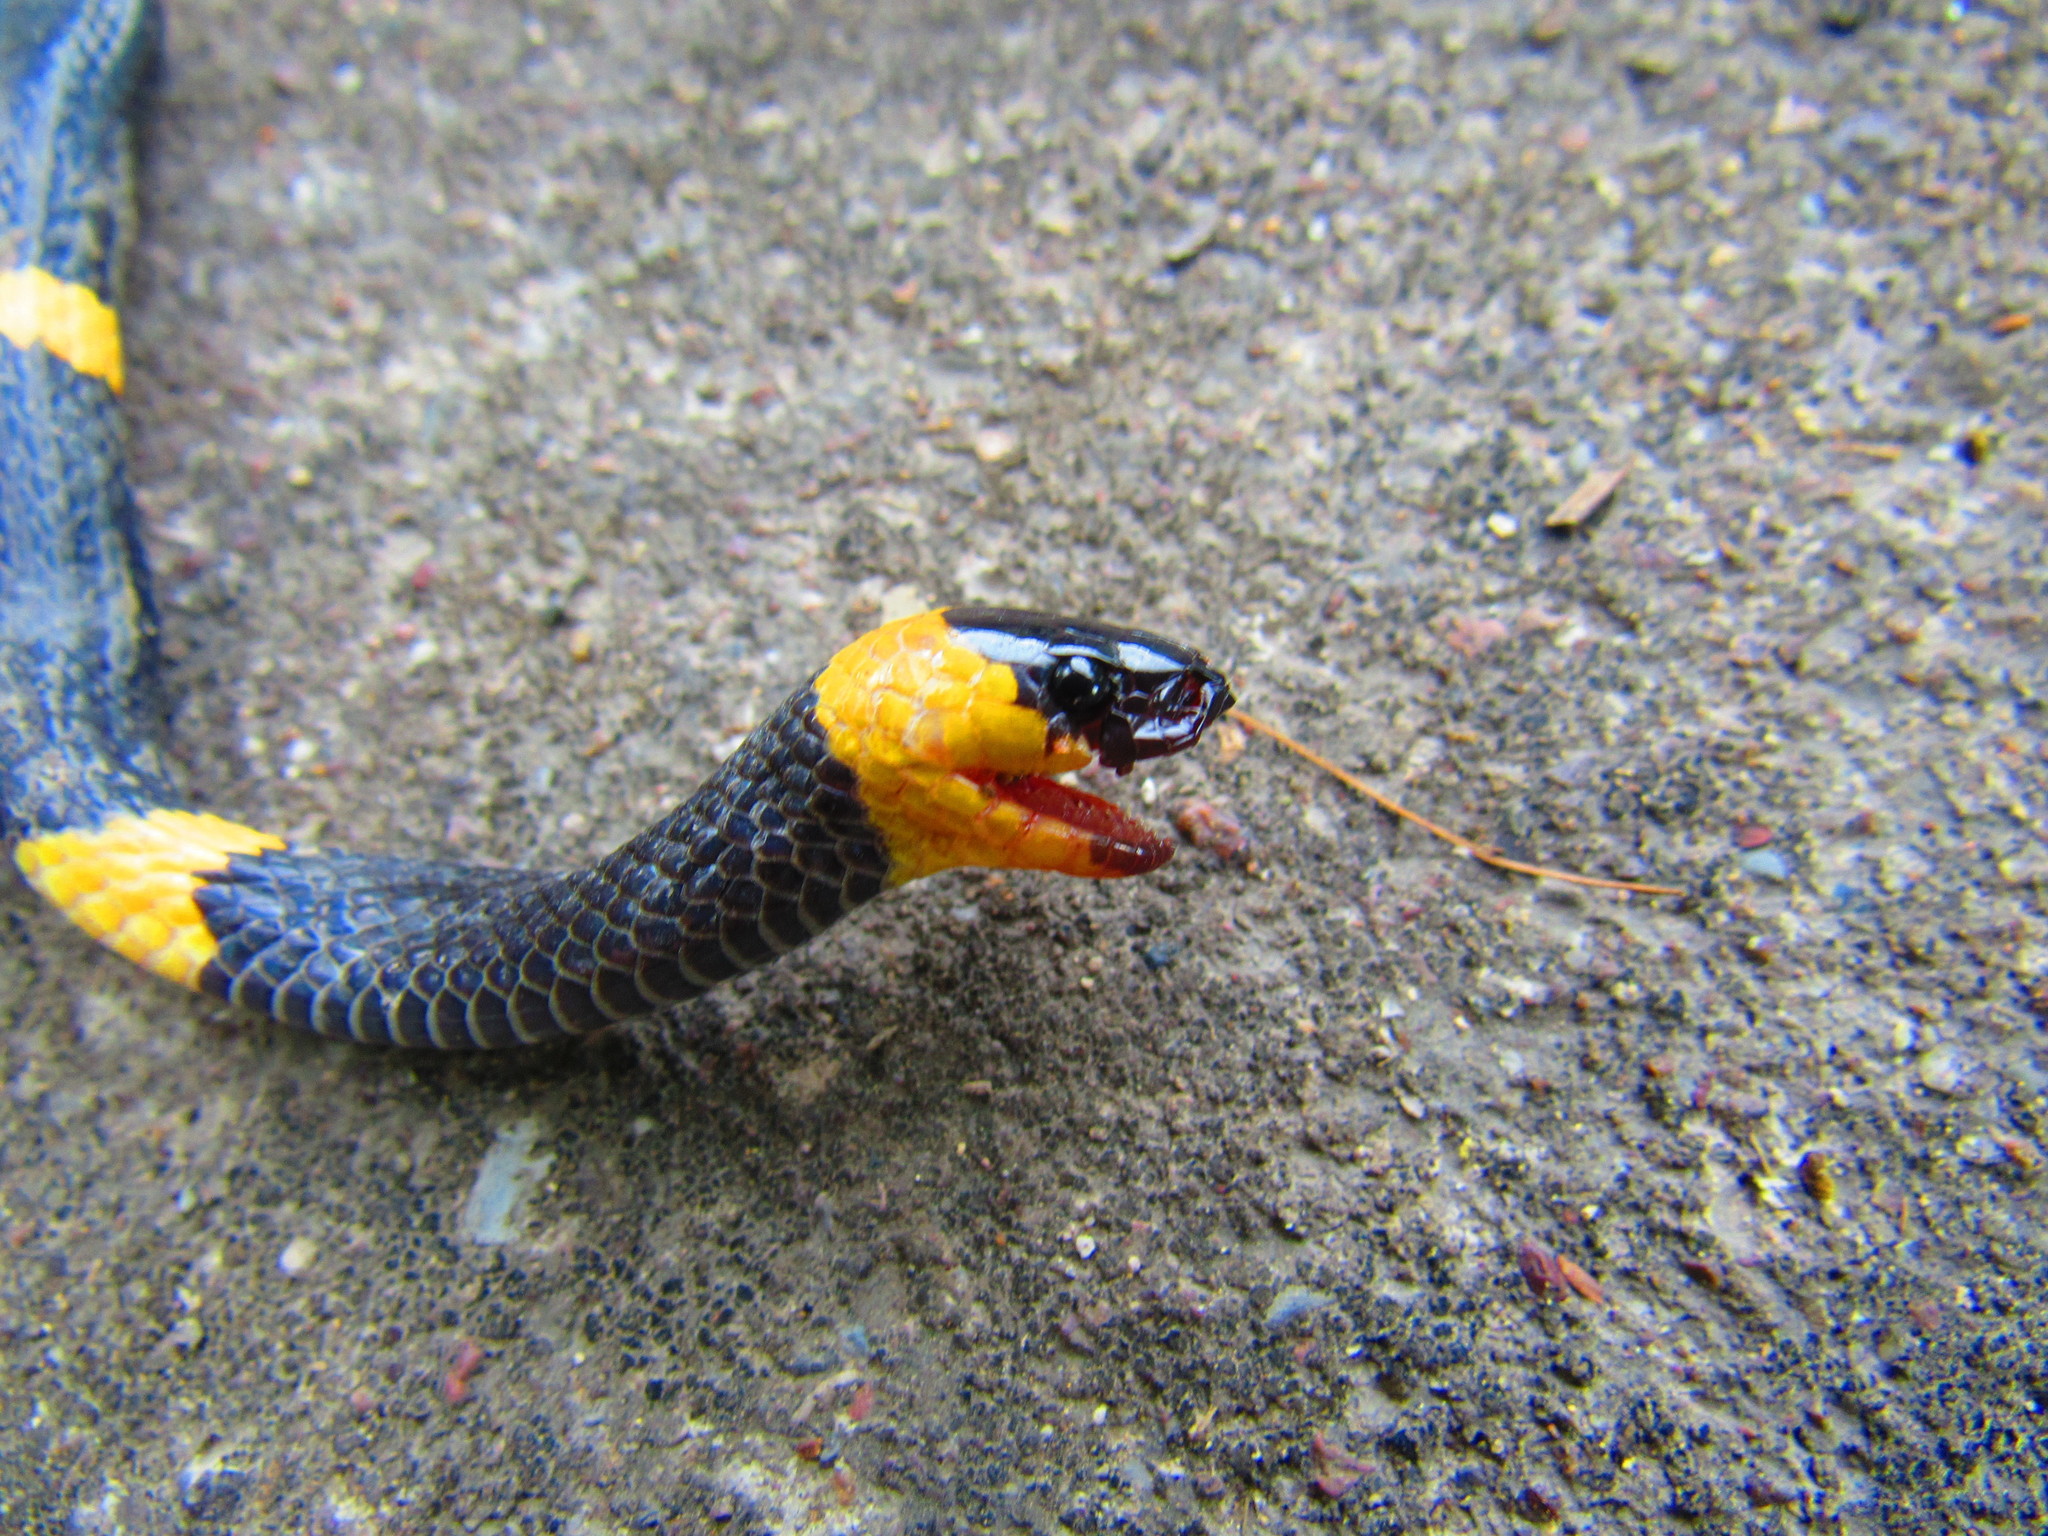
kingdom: Animalia
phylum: Chordata
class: Squamata
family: Colubridae
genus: Geophis
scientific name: Geophis
